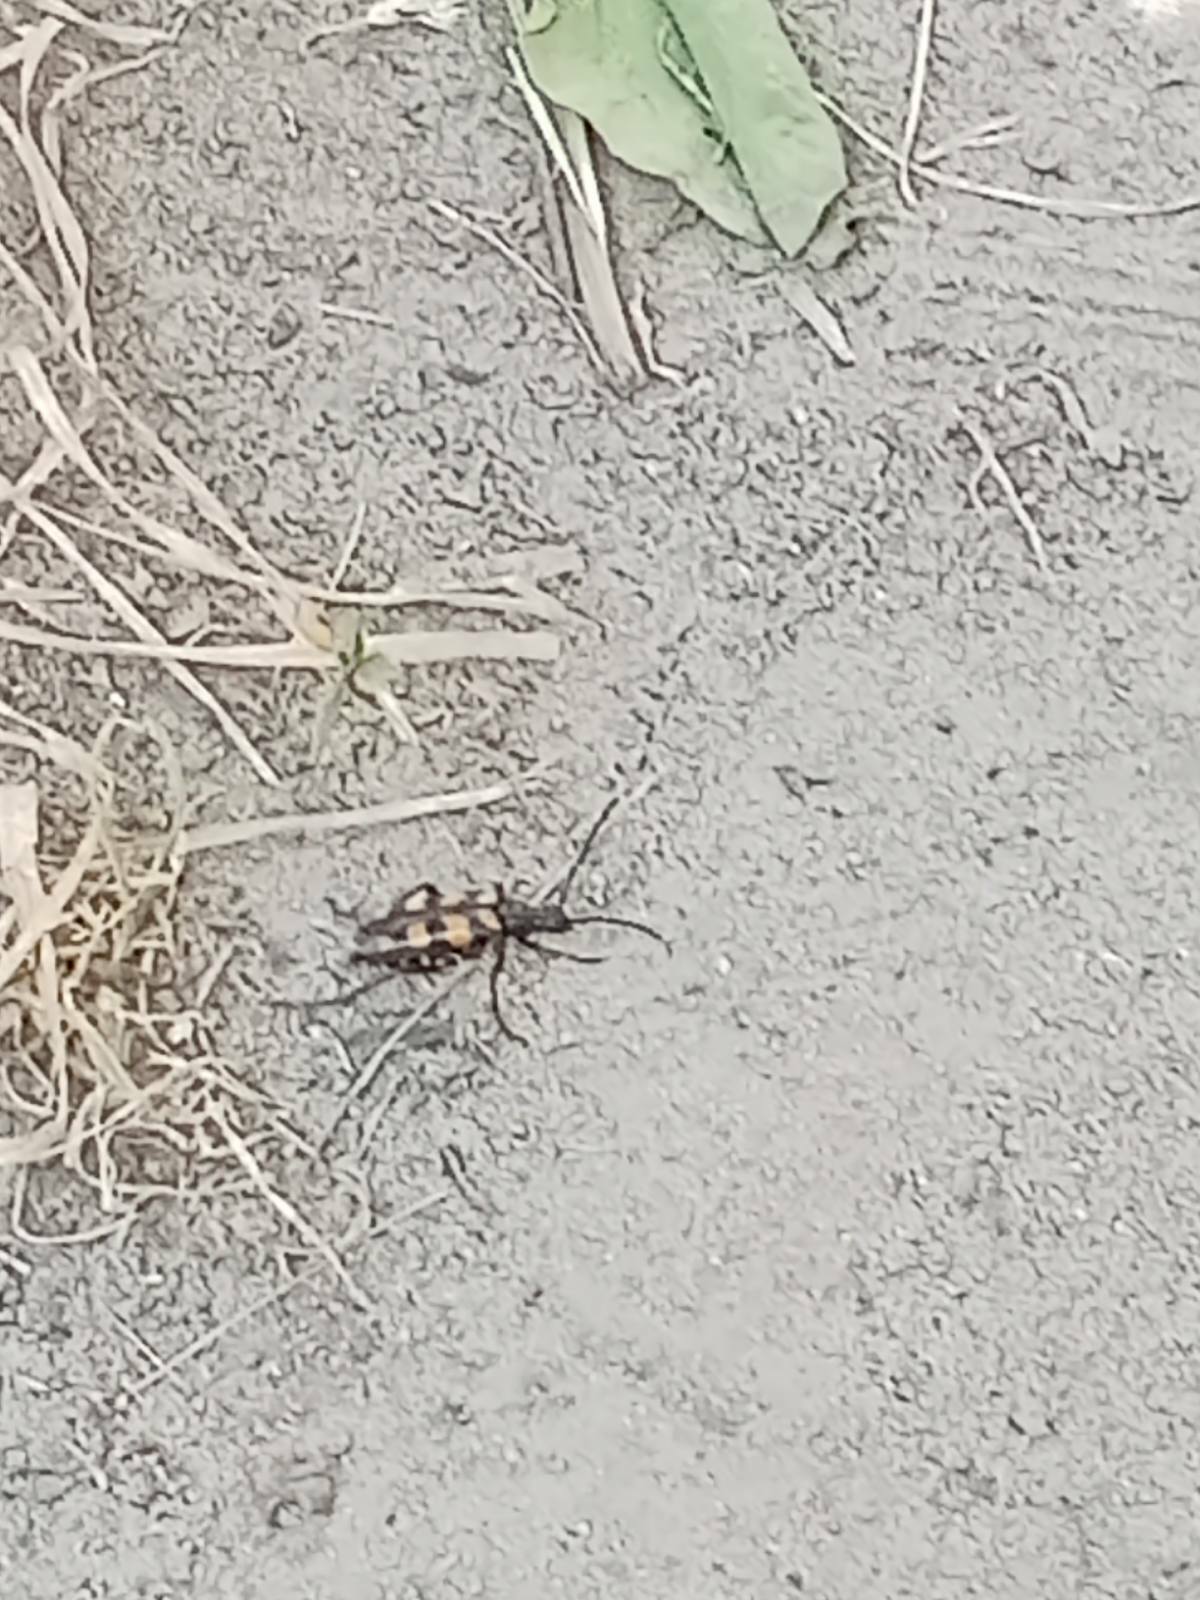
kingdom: Animalia
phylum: Arthropoda
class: Insecta
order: Coleoptera
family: Cerambycidae
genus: Leptura
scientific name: Leptura quadrifasciata
